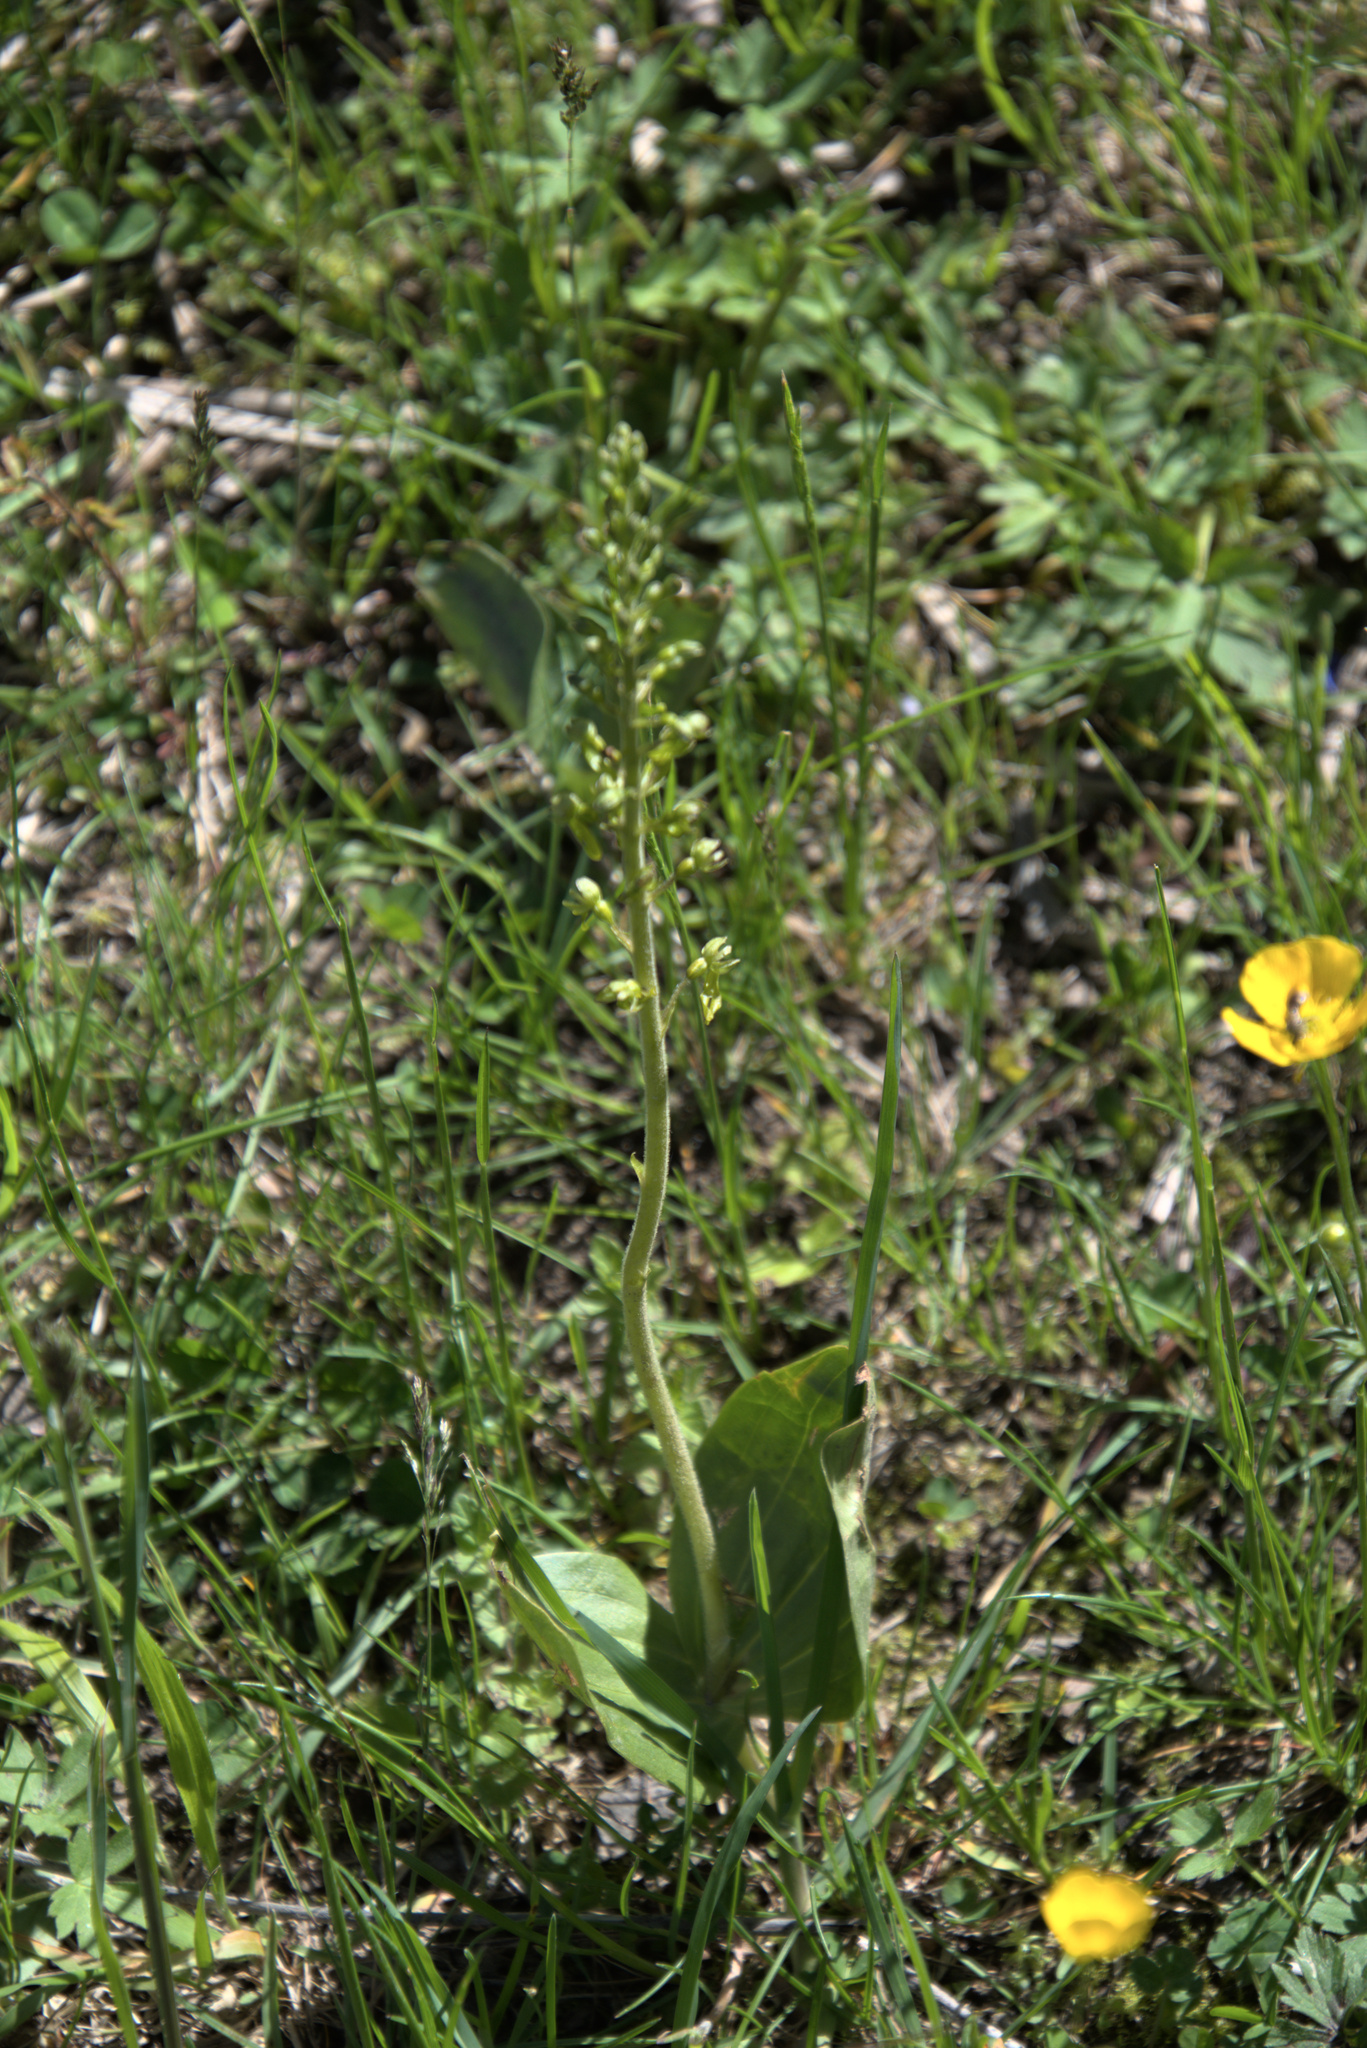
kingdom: Plantae
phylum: Tracheophyta
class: Liliopsida
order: Asparagales
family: Orchidaceae
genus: Neottia
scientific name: Neottia ovata
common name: Common twayblade
